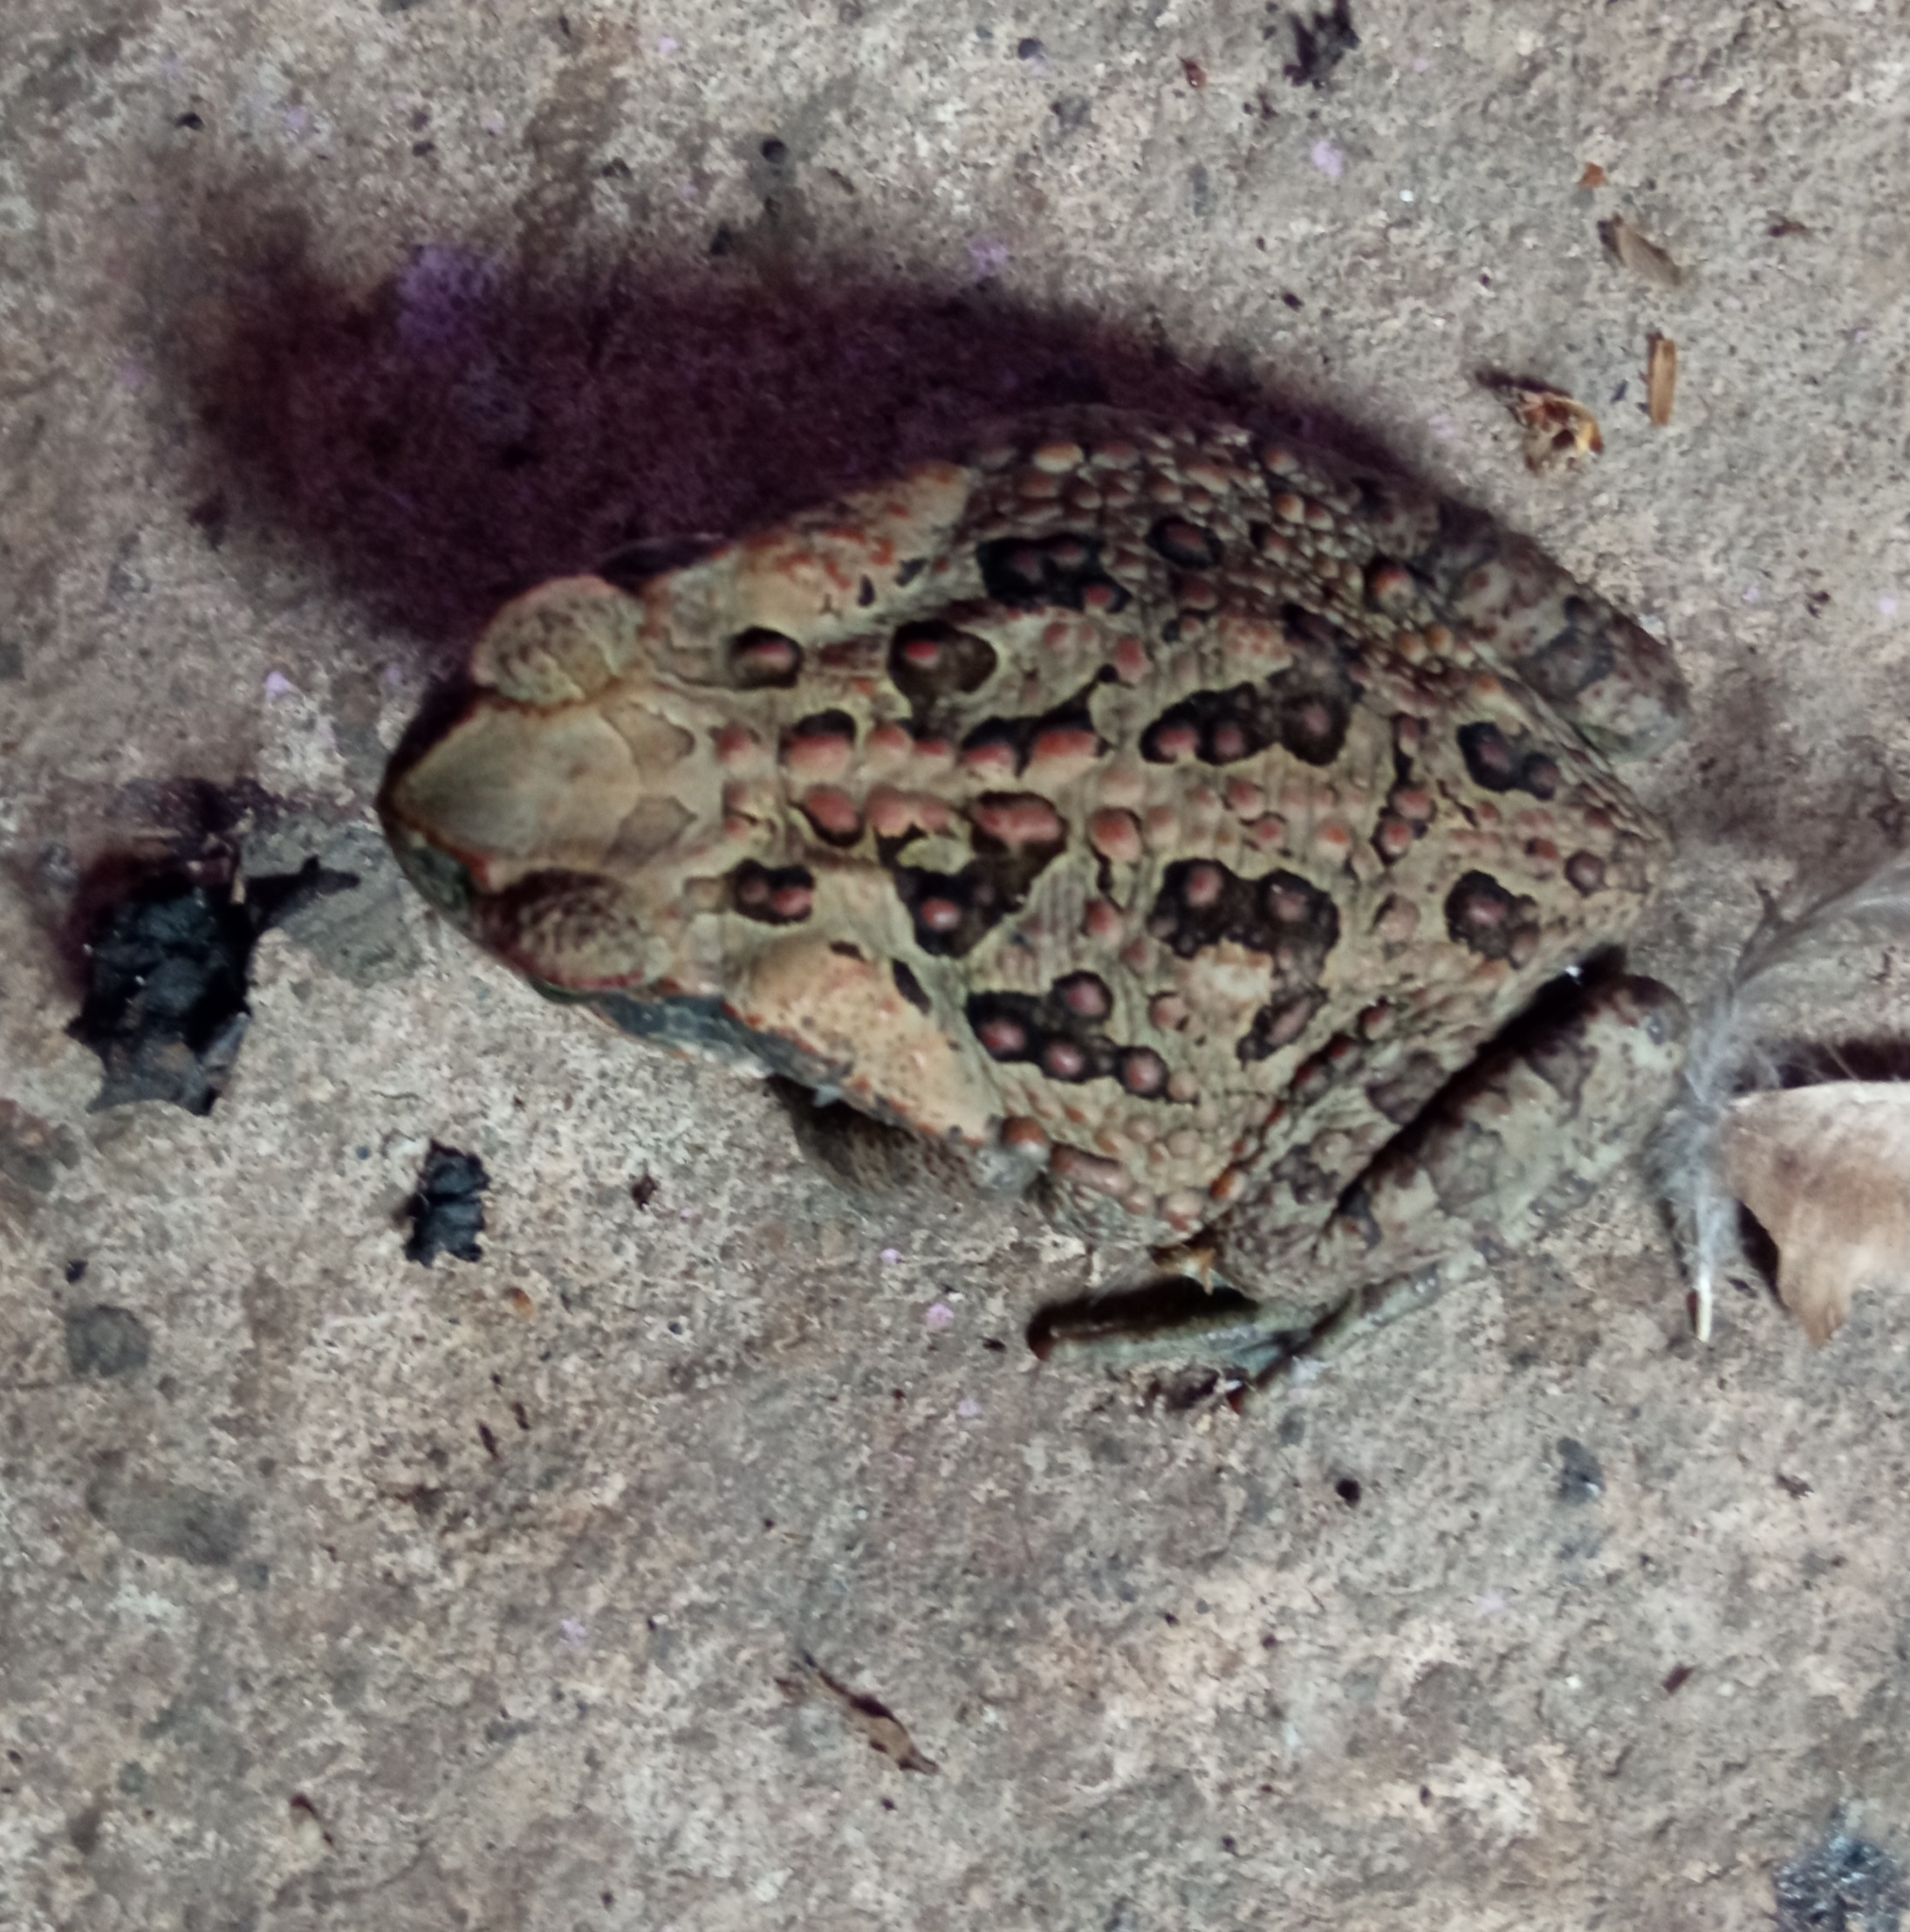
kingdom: Animalia
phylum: Chordata
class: Amphibia
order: Anura
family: Bufonidae
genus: Rhinella
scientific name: Rhinella marina
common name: Cane toad
